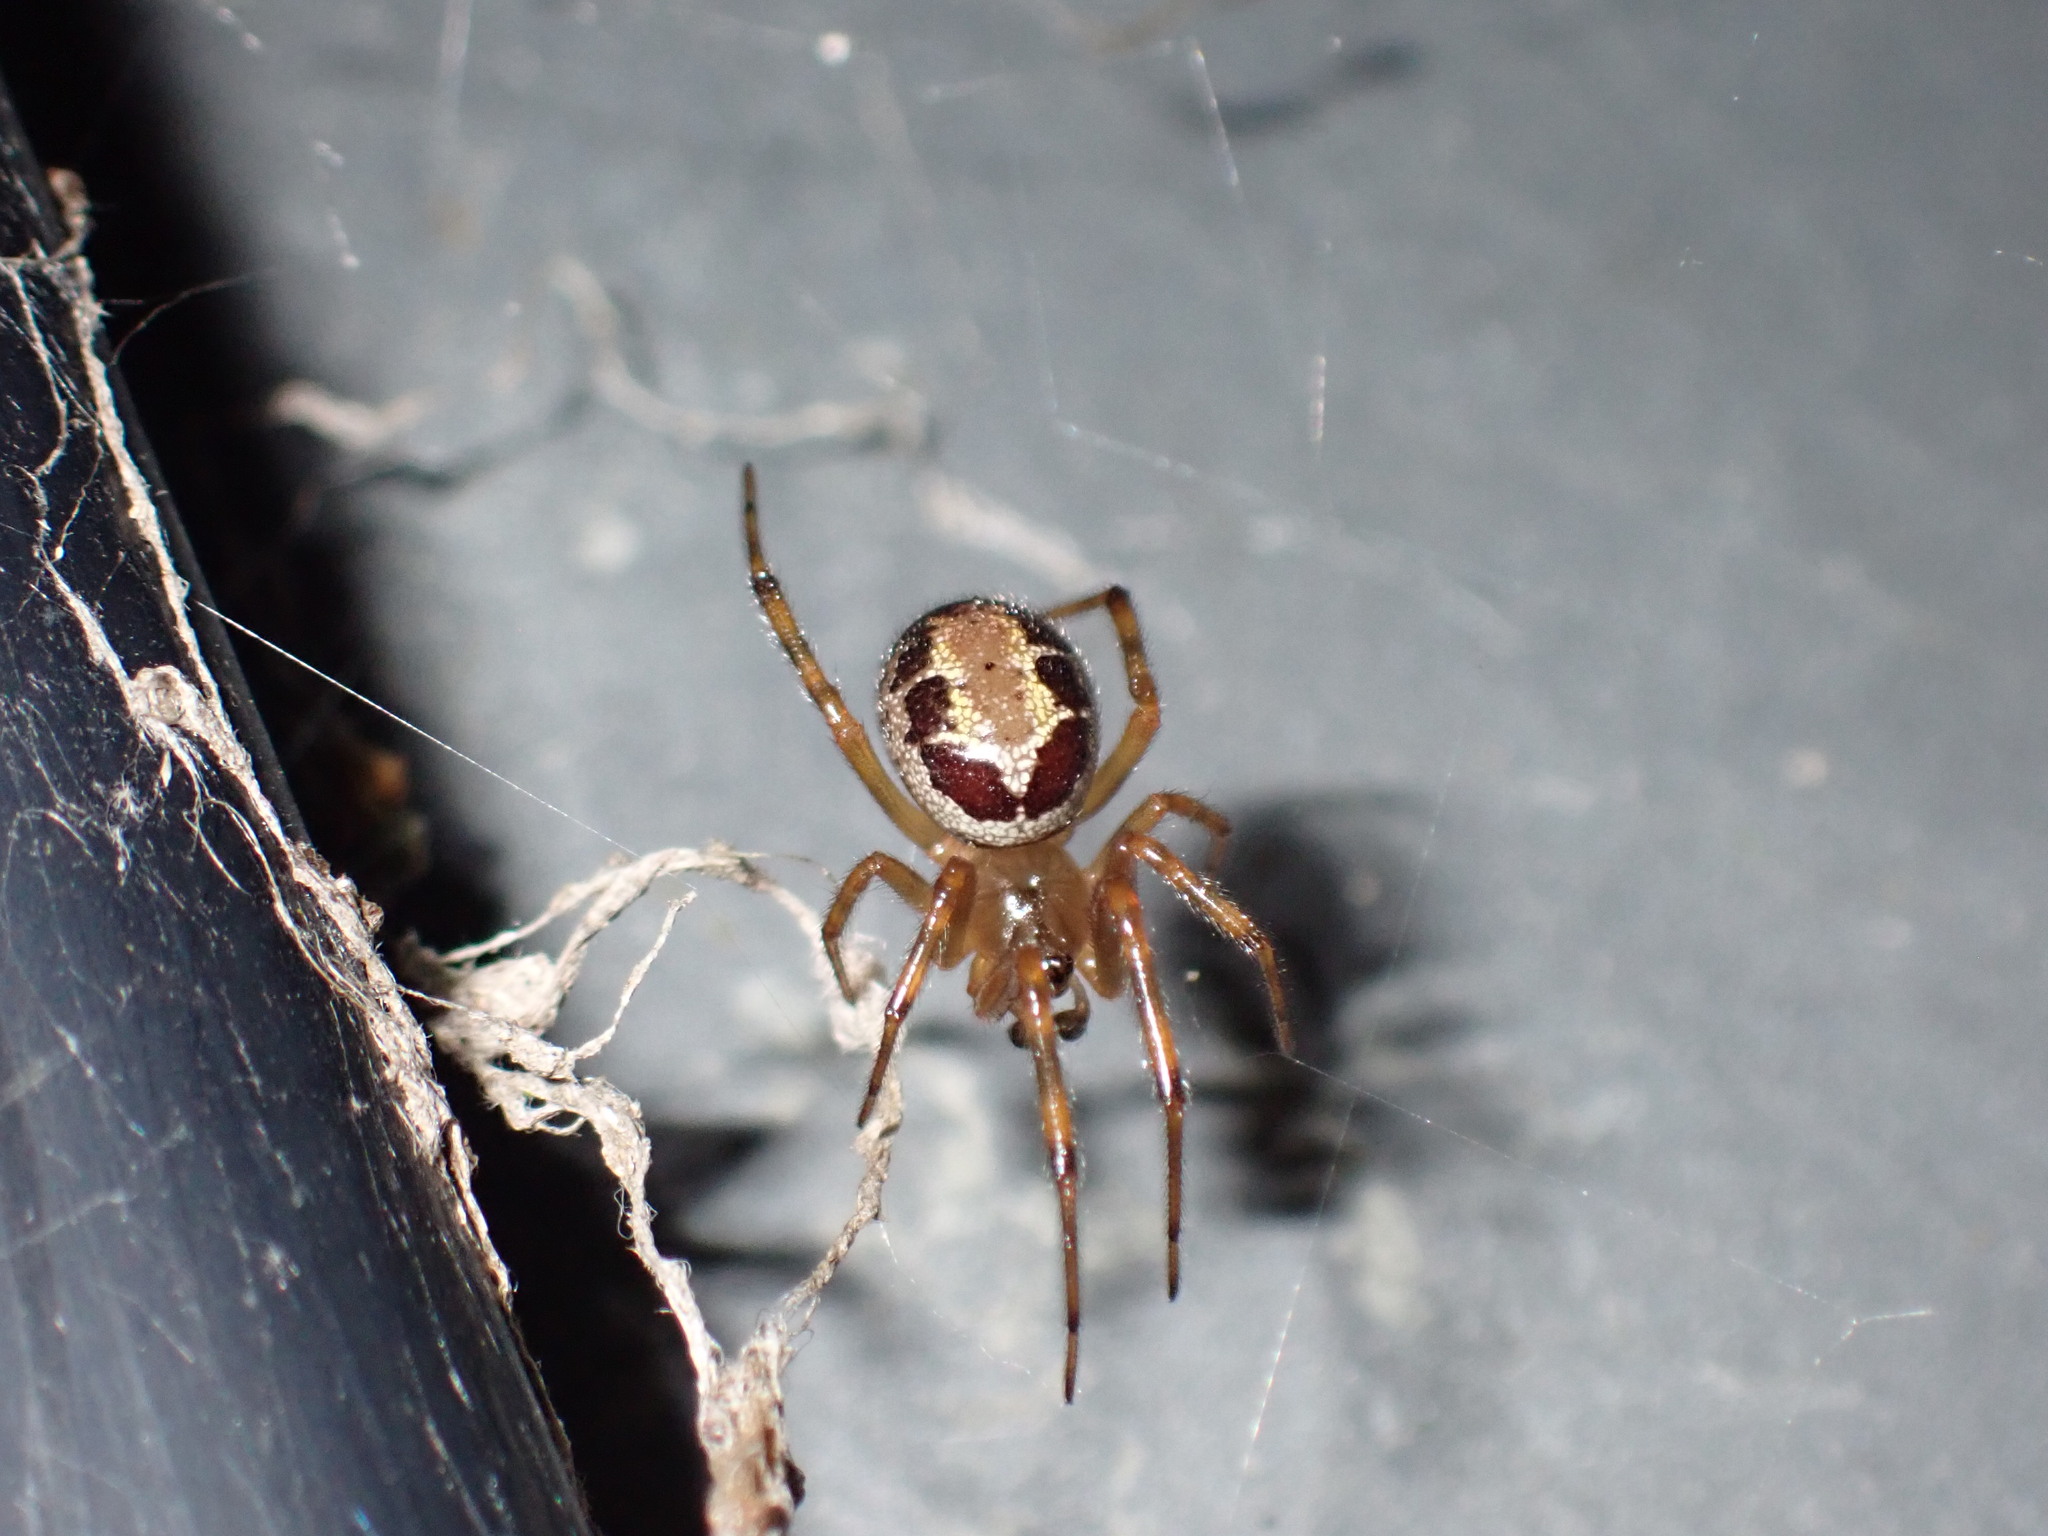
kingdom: Animalia
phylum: Arthropoda
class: Arachnida
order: Araneae
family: Theridiidae
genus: Steatoda
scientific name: Steatoda nobilis
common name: Cobweb weaver
